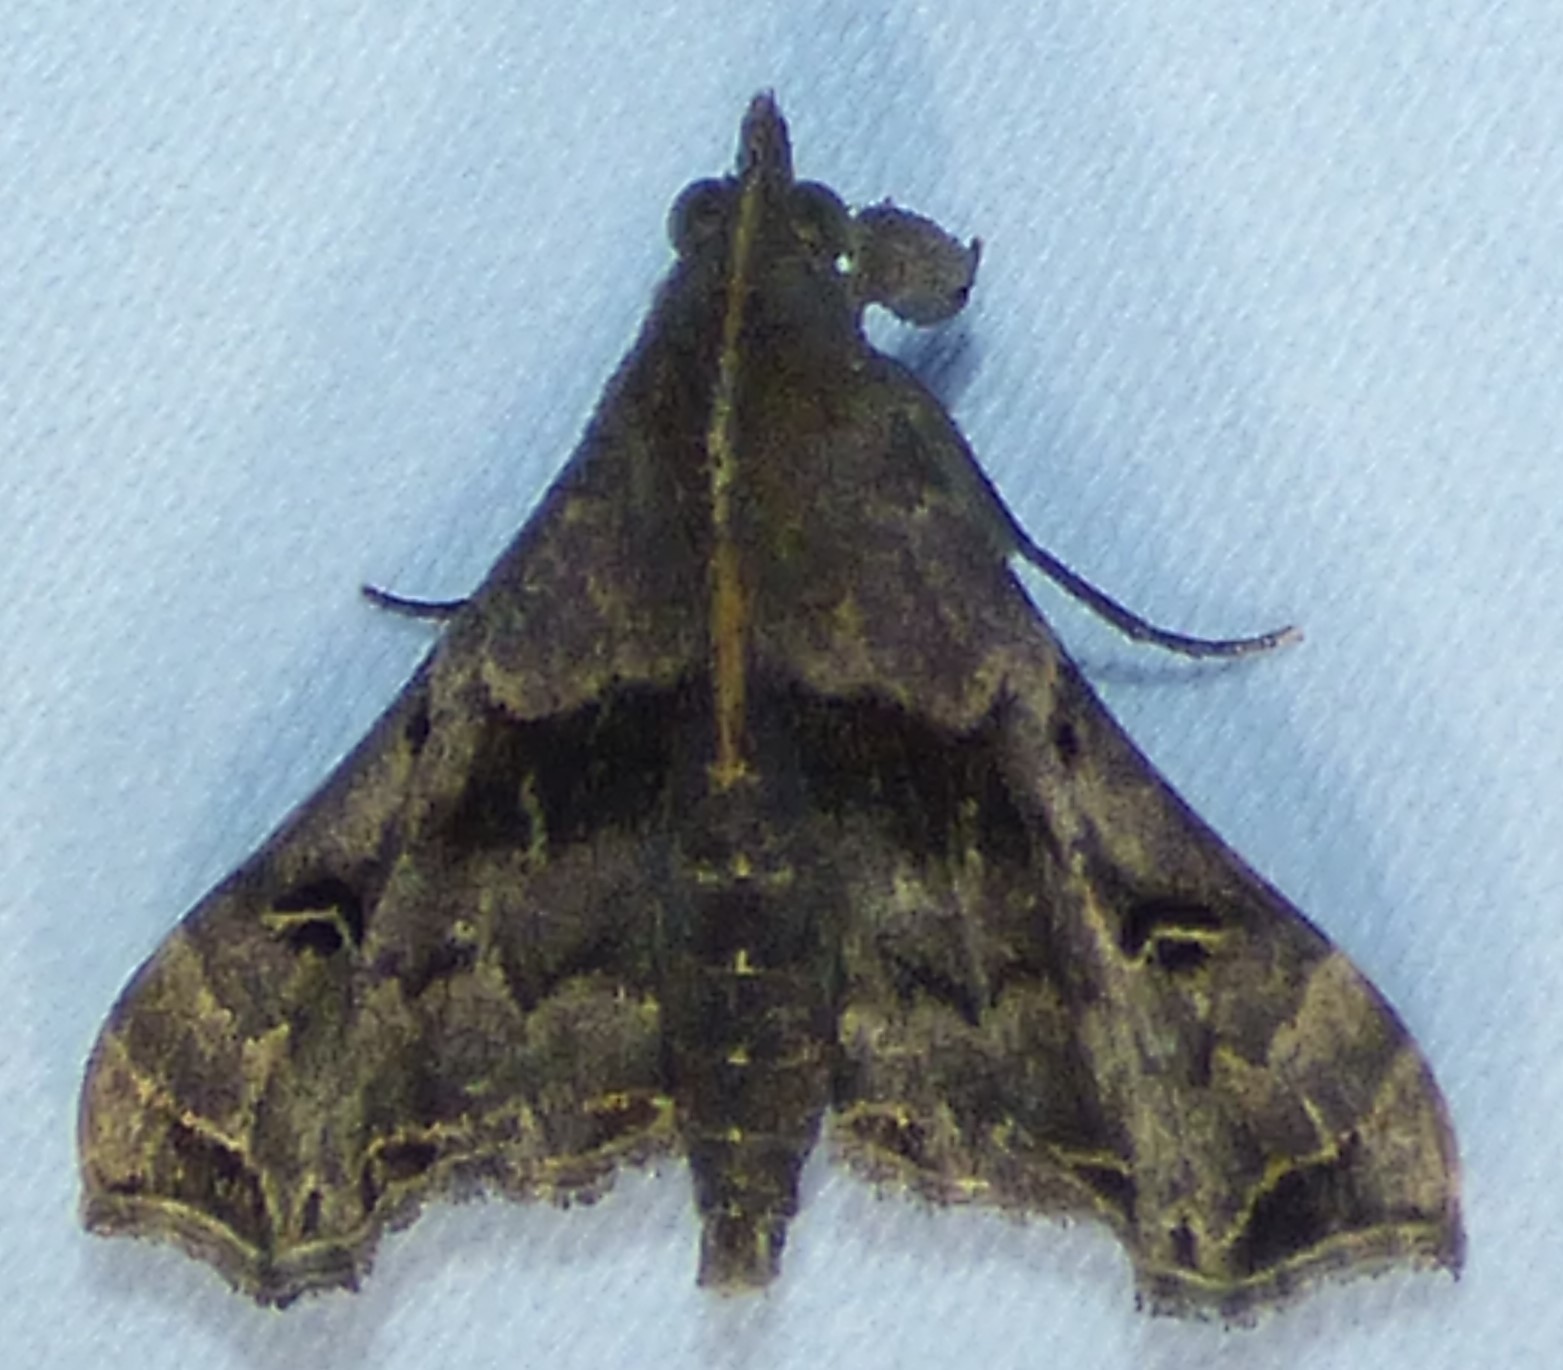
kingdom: Animalia
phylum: Arthropoda
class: Insecta
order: Lepidoptera
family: Erebidae
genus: Palthis
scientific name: Palthis asopialis
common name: Faint-spotted palthis moth
